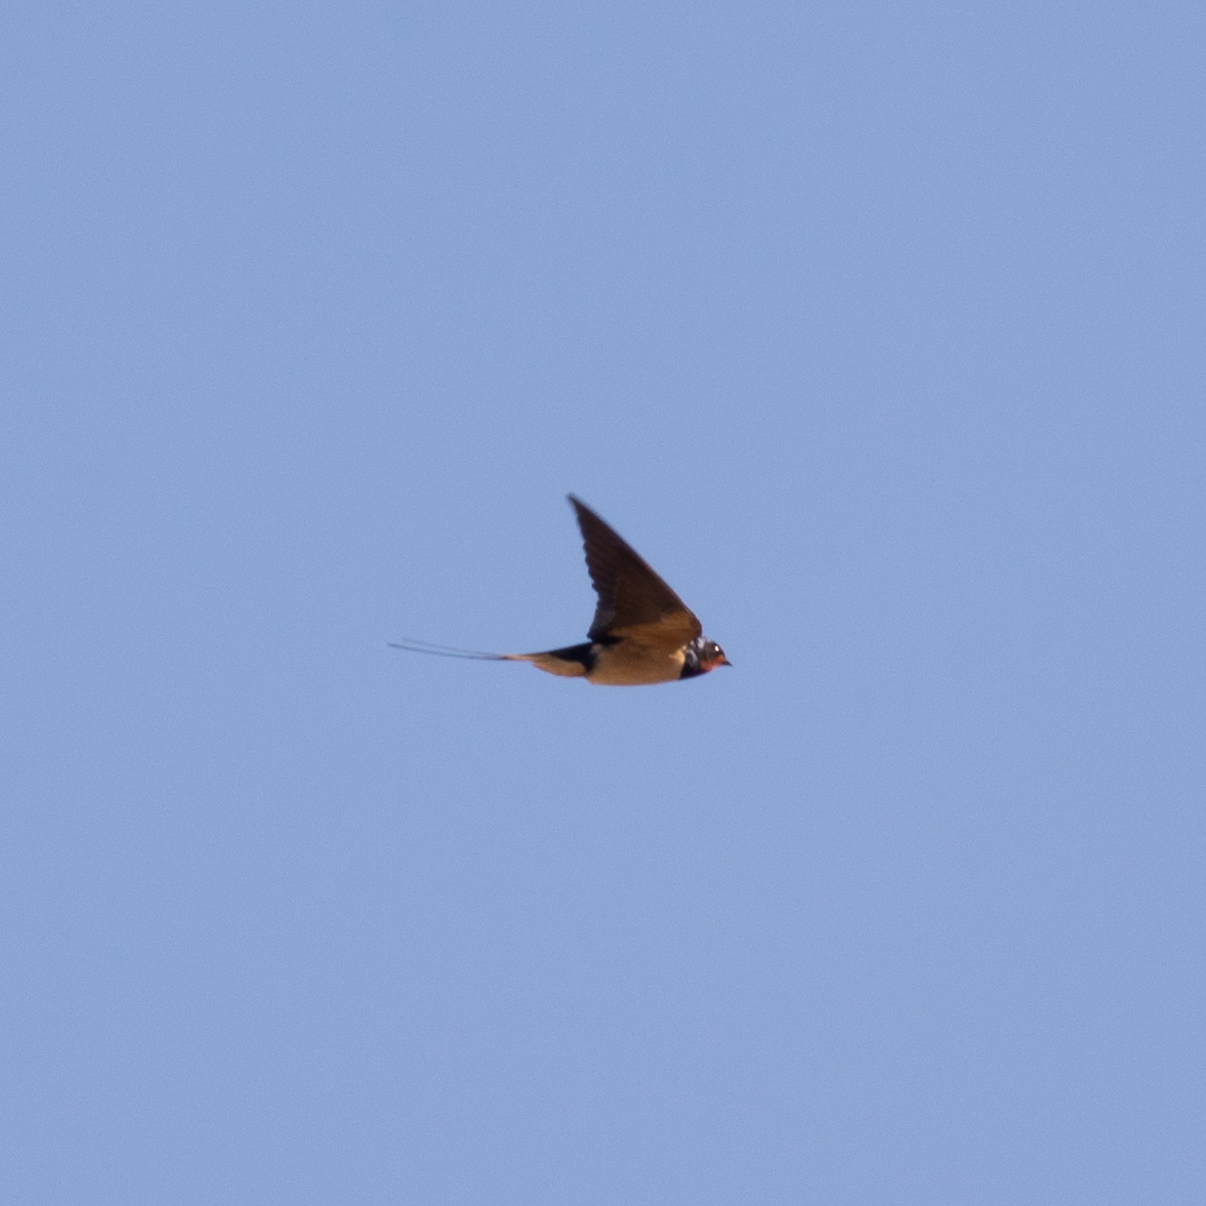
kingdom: Animalia
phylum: Chordata
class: Aves
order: Passeriformes
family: Hirundinidae
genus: Hirundo
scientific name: Hirundo rustica
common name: Barn swallow
